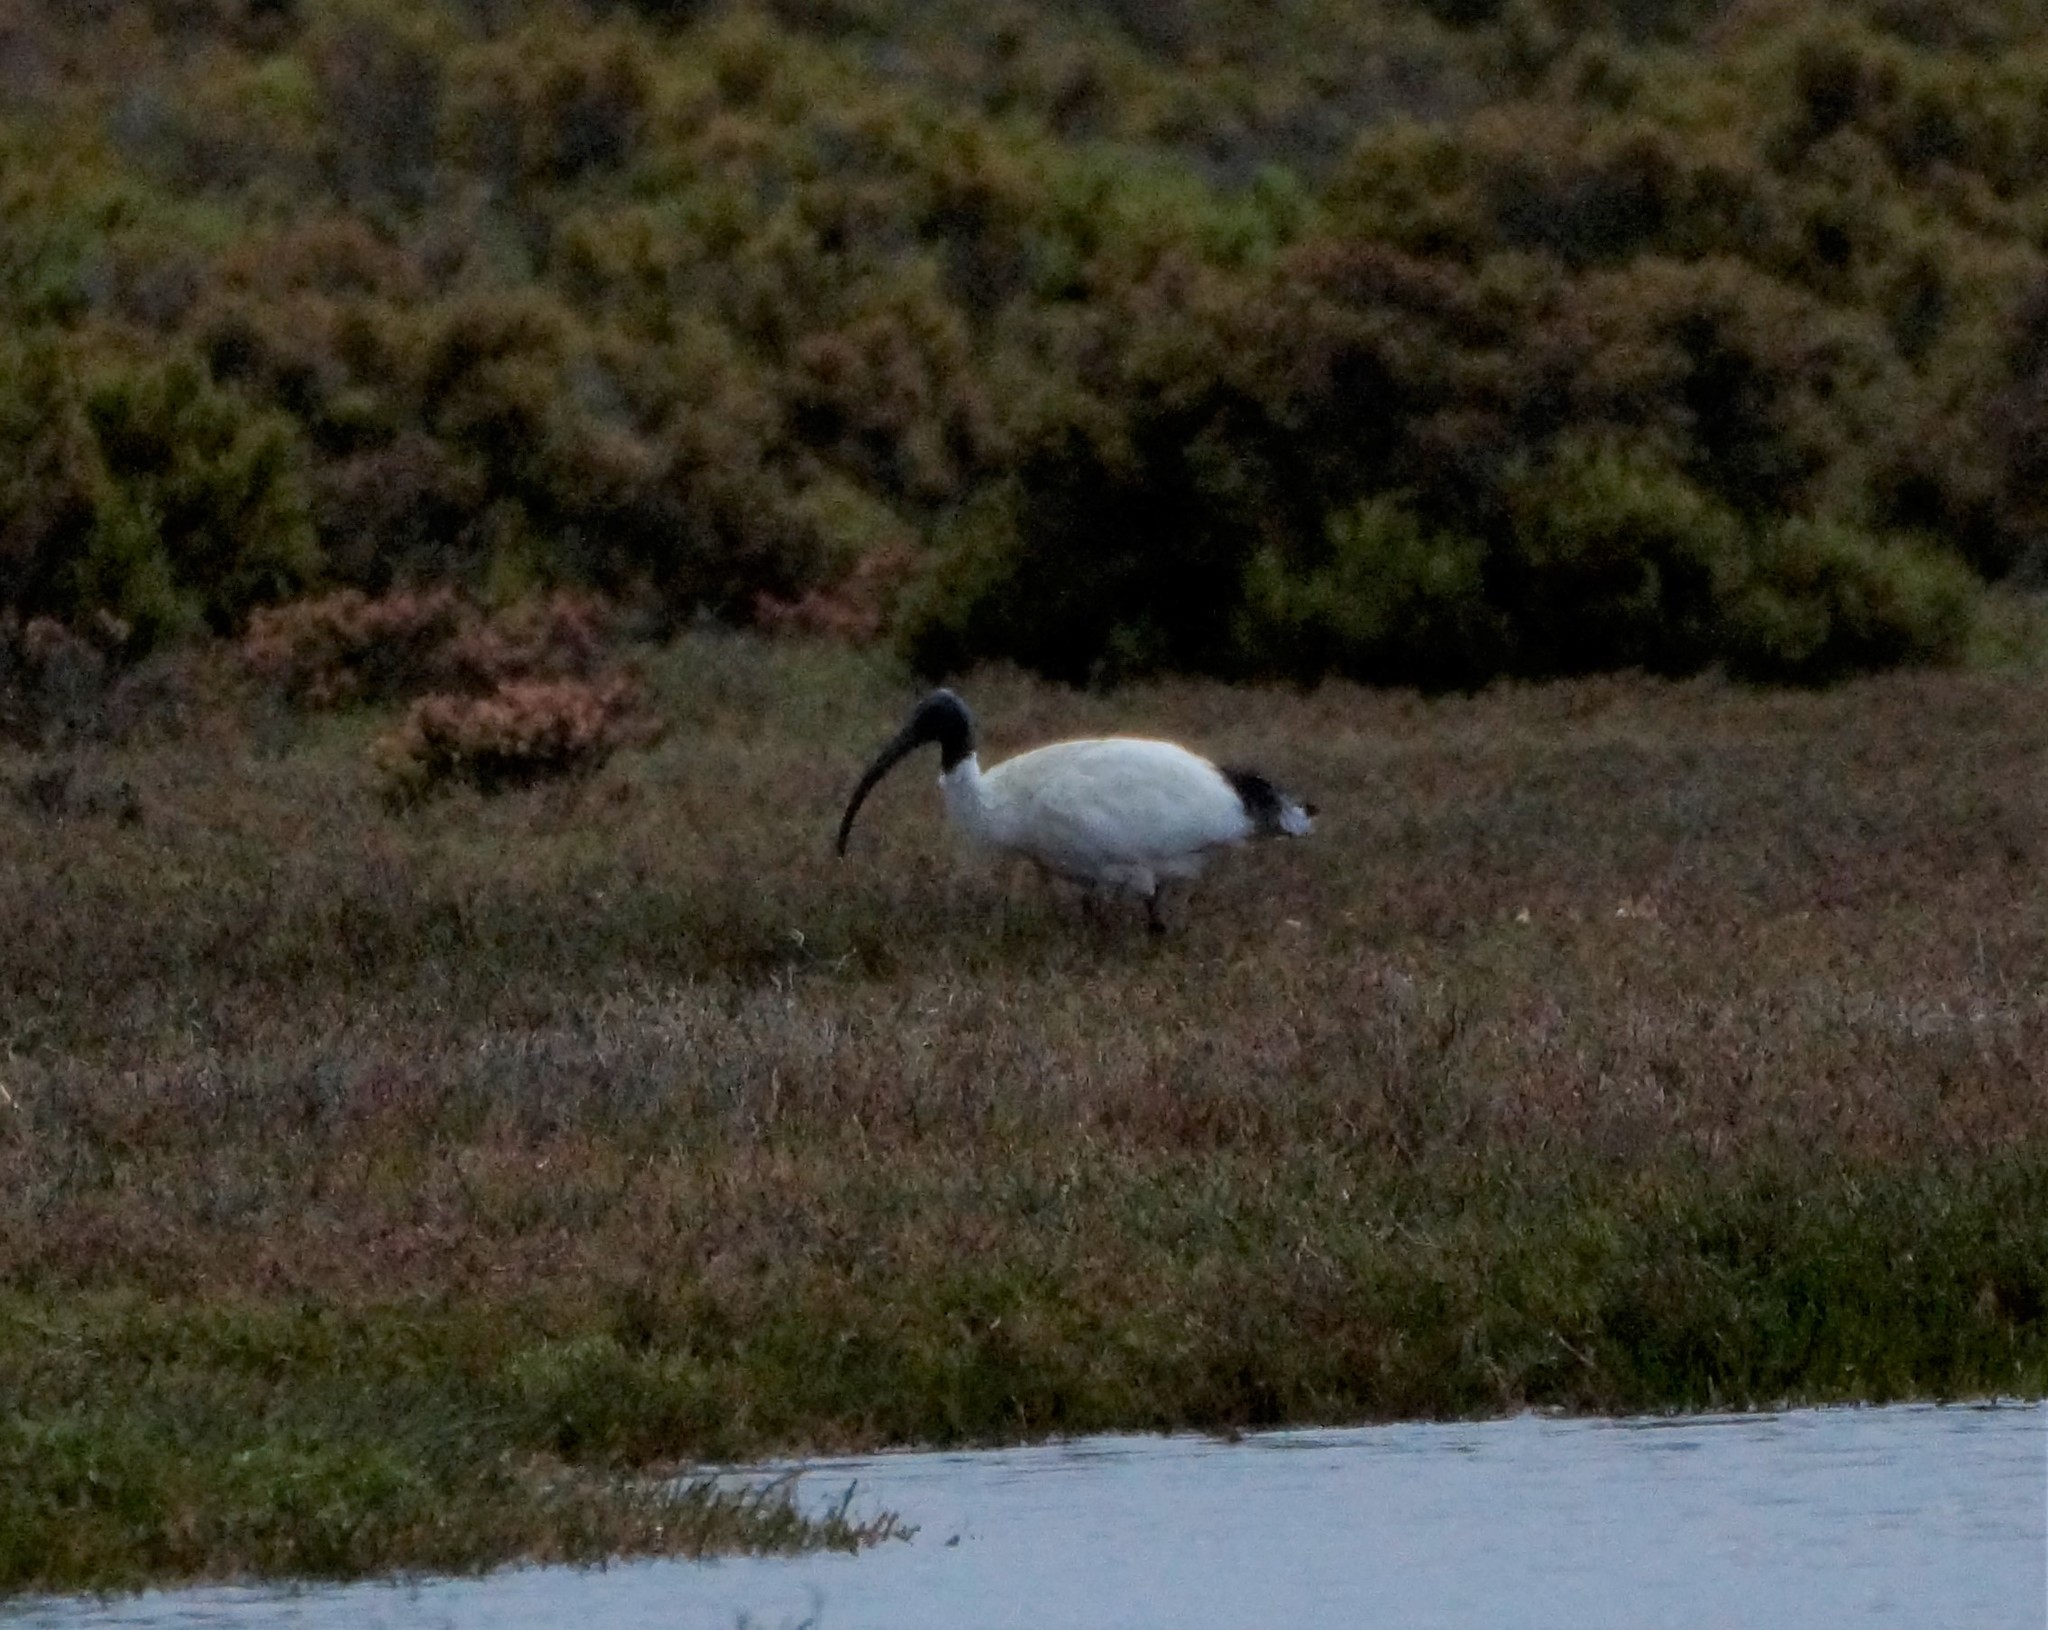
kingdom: Animalia
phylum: Chordata
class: Aves
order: Pelecaniformes
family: Threskiornithidae
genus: Threskiornis
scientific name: Threskiornis molucca
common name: Australian white ibis
